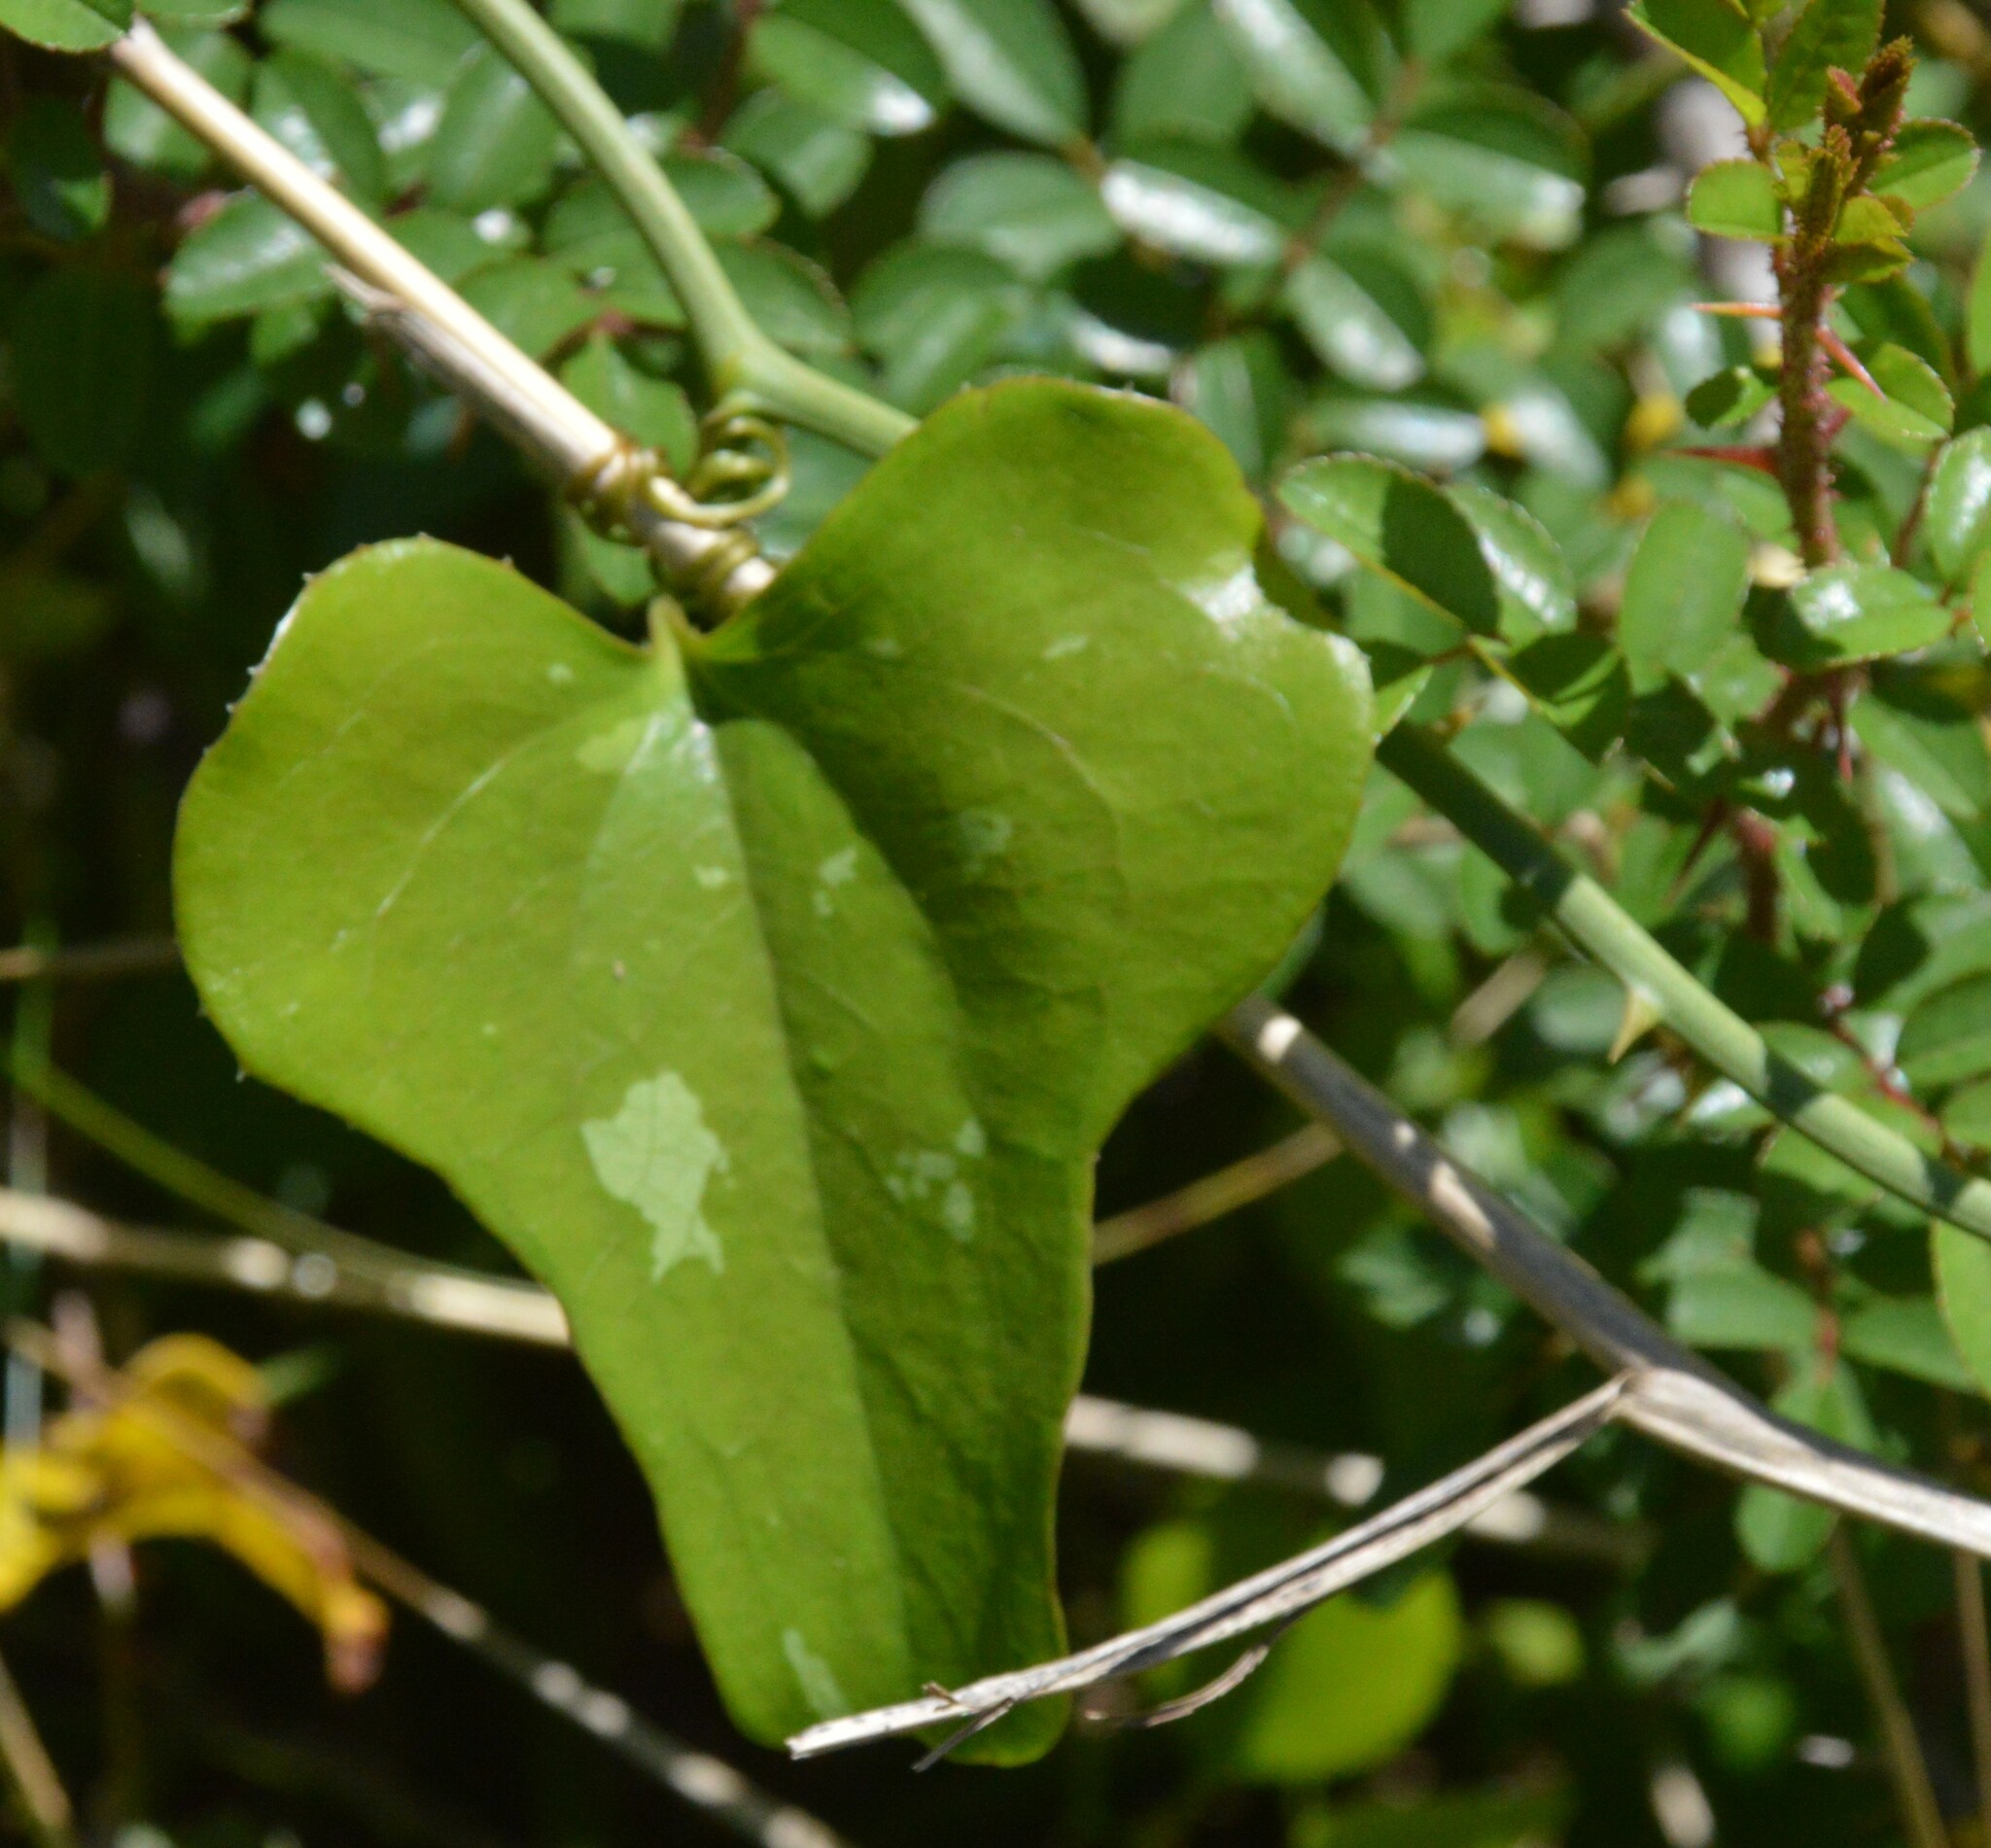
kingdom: Plantae
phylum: Tracheophyta
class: Liliopsida
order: Liliales
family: Smilacaceae
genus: Smilax
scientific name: Smilax bona-nox
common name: Catbrier
